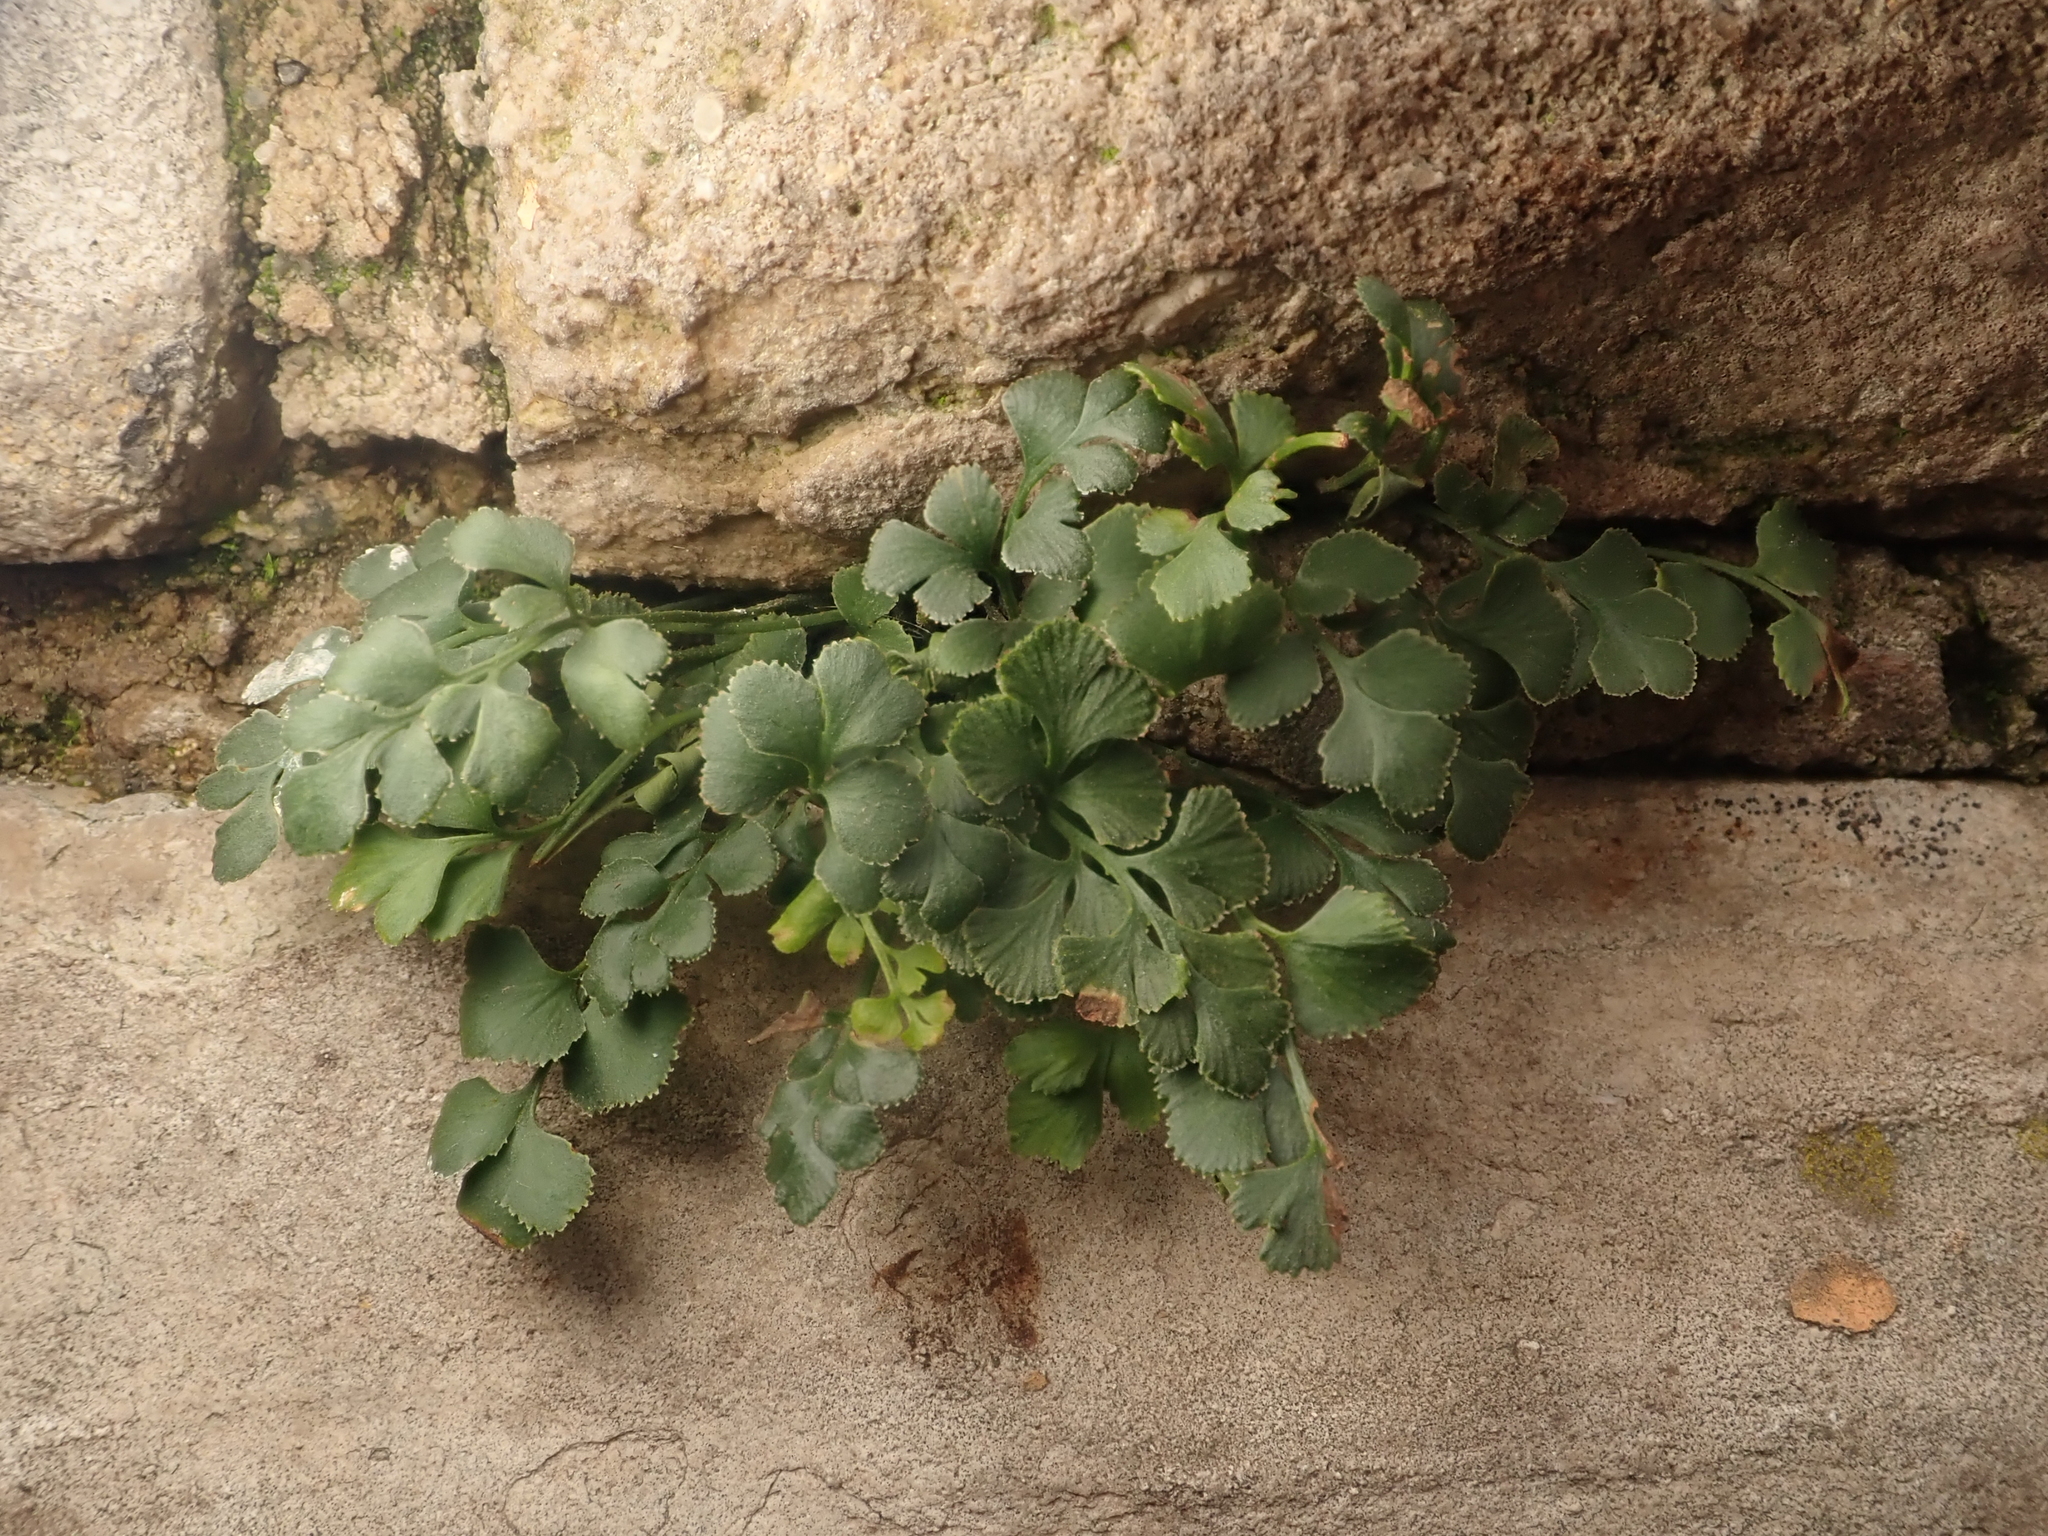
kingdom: Plantae
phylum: Tracheophyta
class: Polypodiopsida
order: Polypodiales
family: Aspleniaceae
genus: Asplenium
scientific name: Asplenium ruta-muraria
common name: Wall-rue
